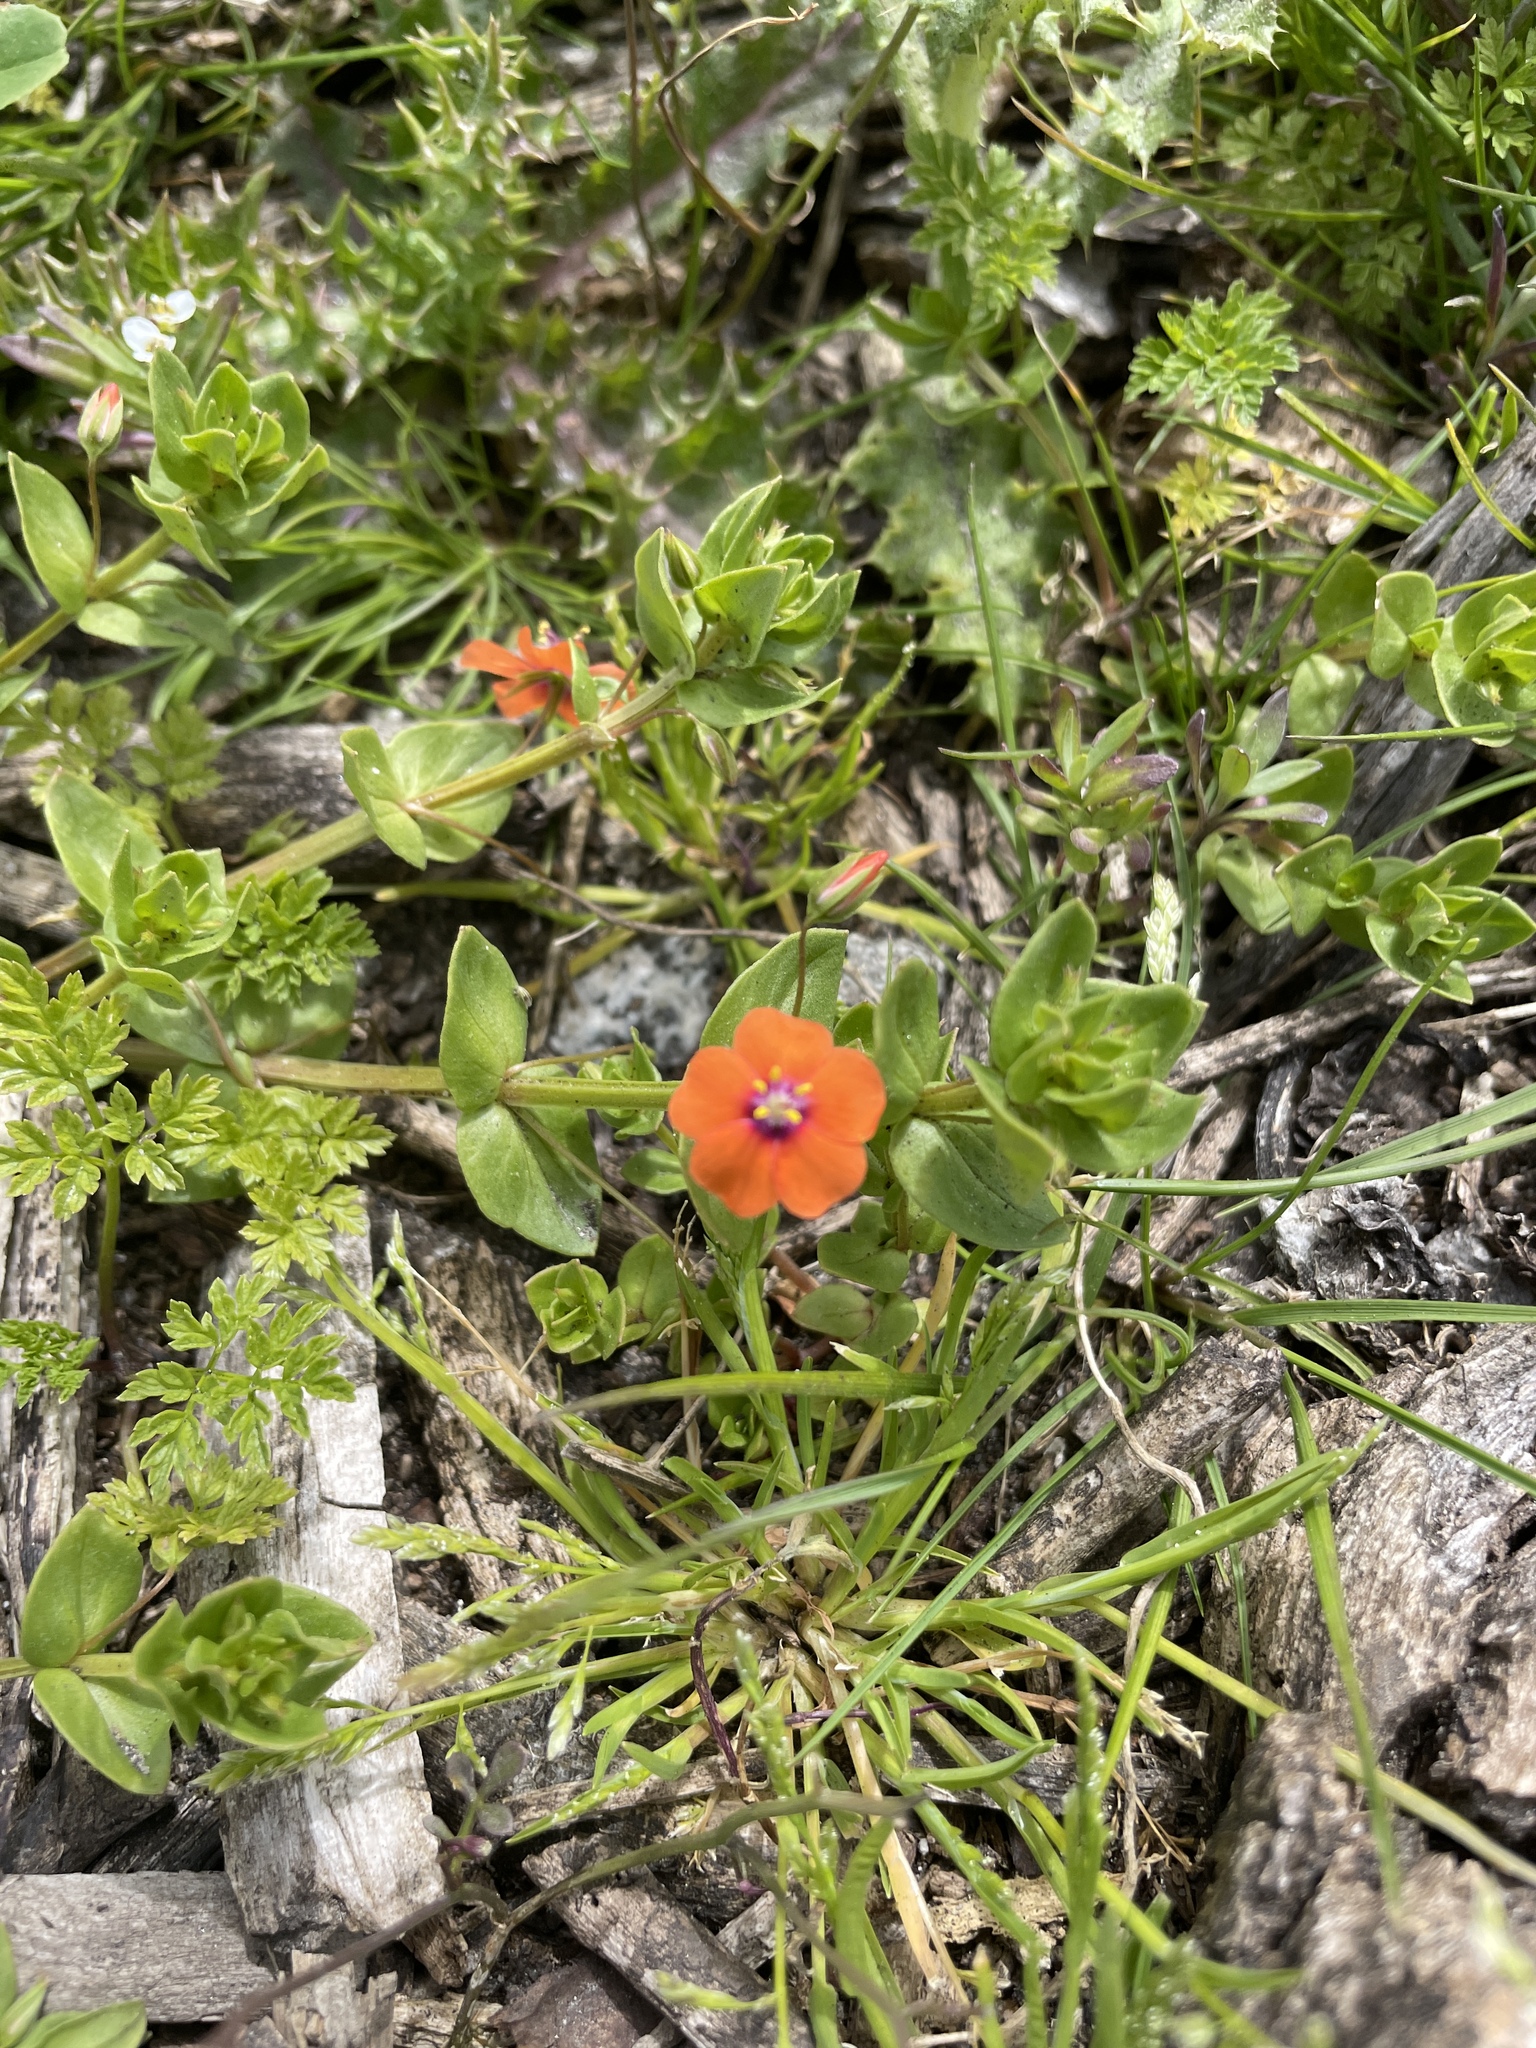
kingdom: Plantae
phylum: Tracheophyta
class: Magnoliopsida
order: Ericales
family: Primulaceae
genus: Lysimachia
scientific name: Lysimachia arvensis
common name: Scarlet pimpernel
